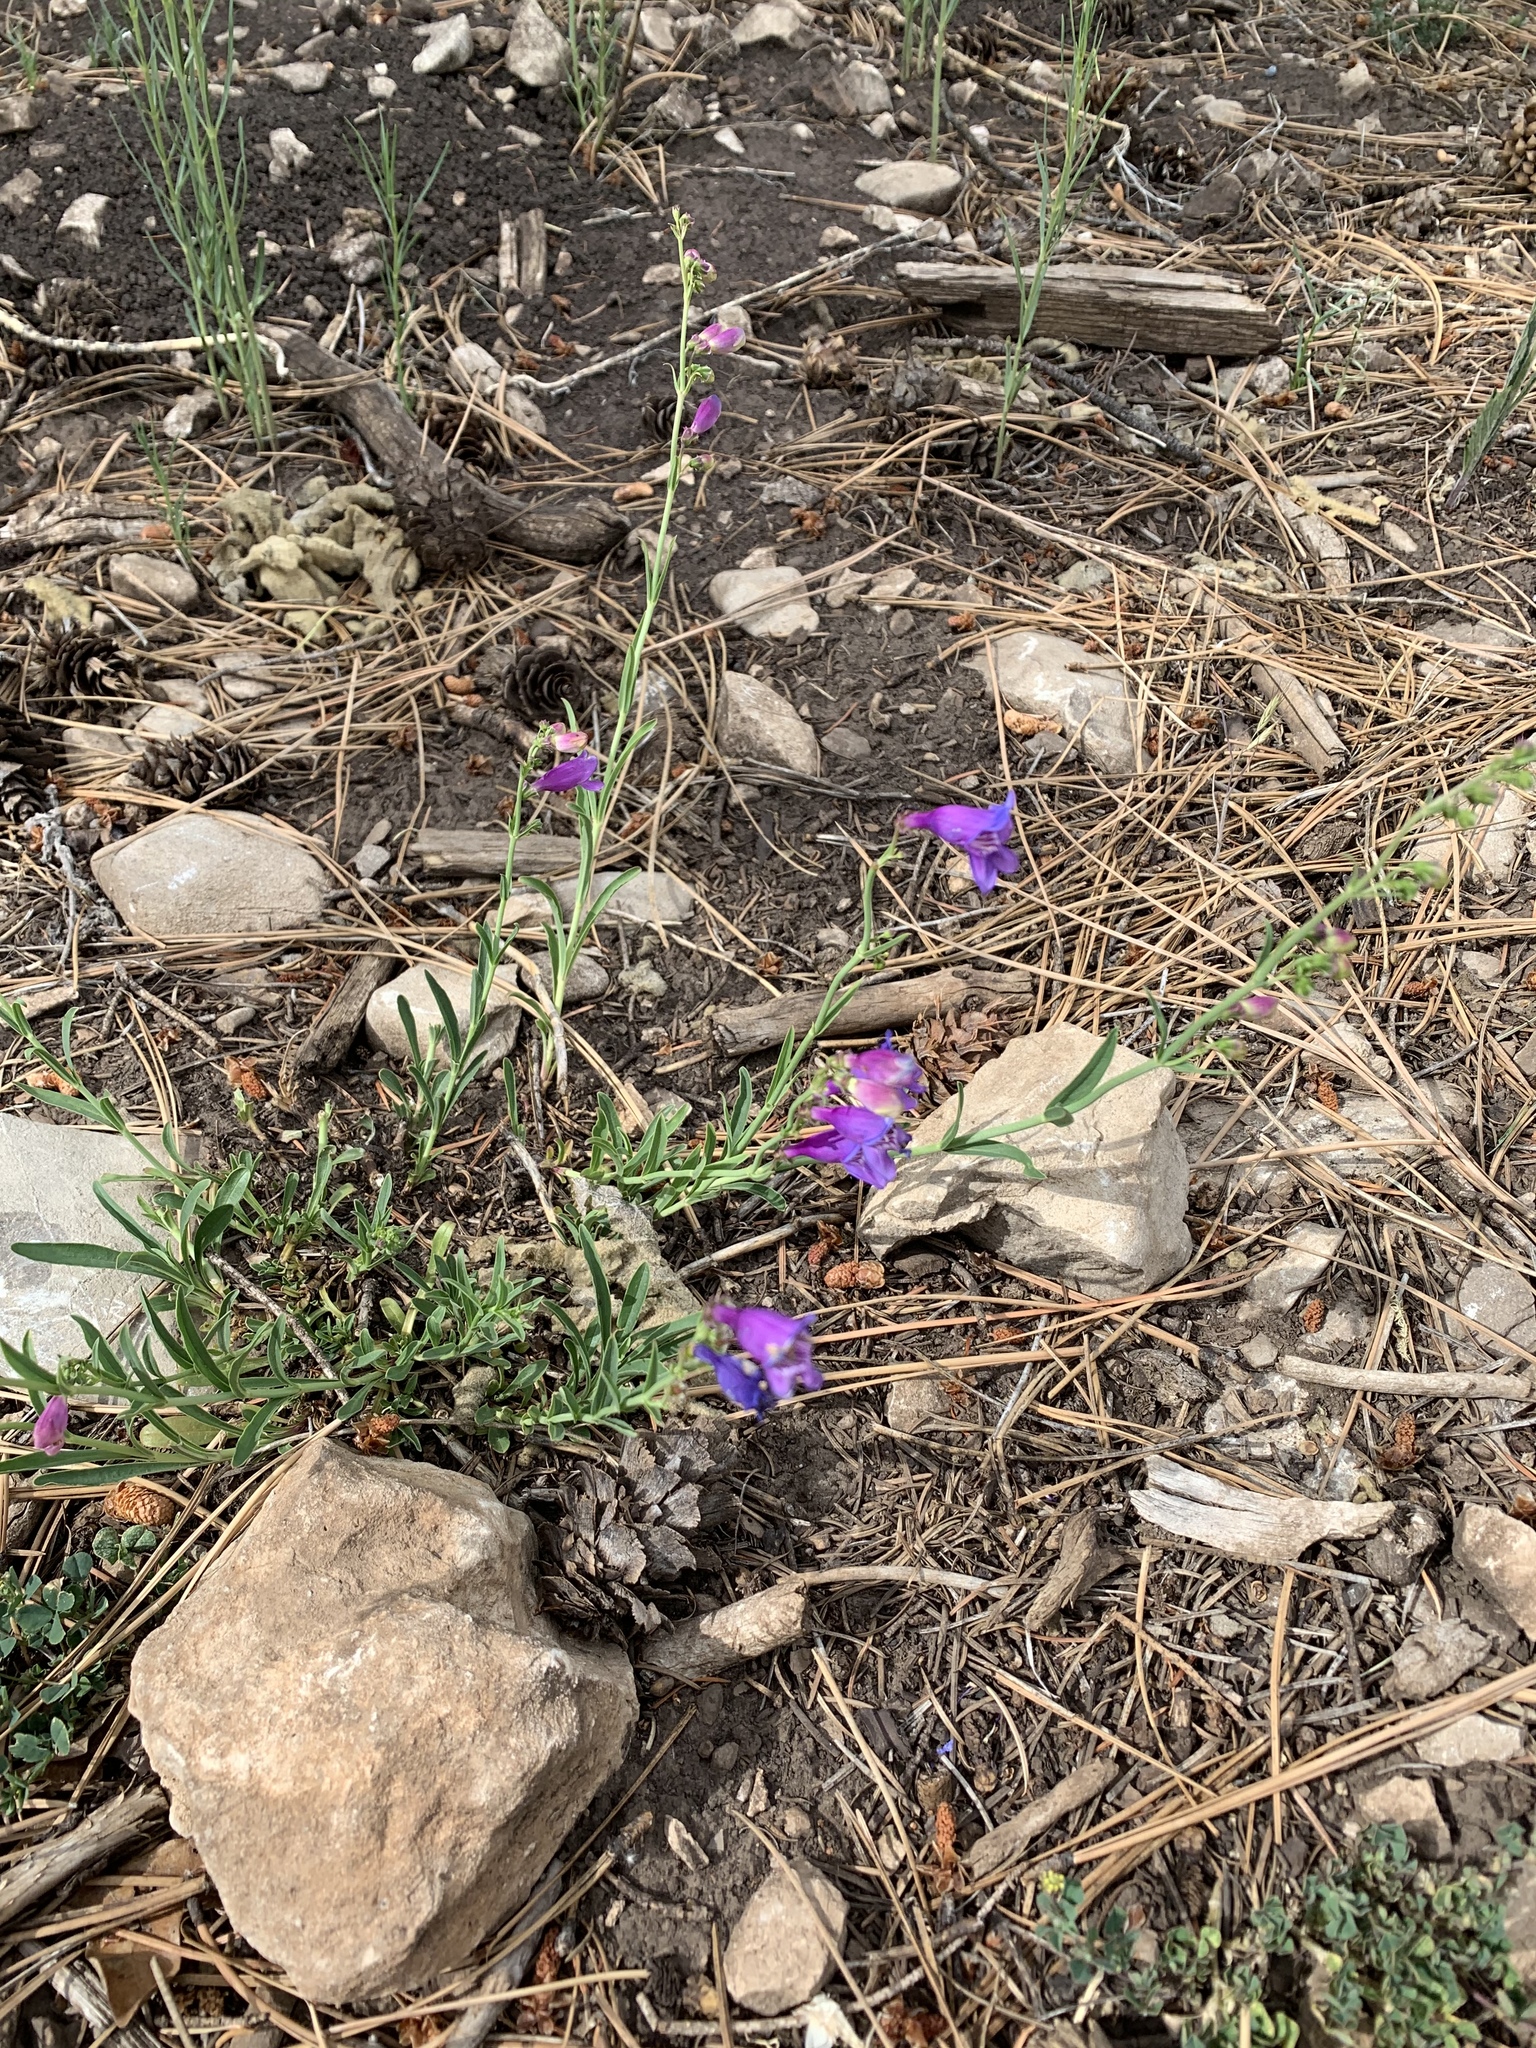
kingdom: Plantae
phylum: Tracheophyta
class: Magnoliopsida
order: Lamiales
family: Plantaginaceae
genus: Penstemon
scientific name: Penstemon neomexicanus
